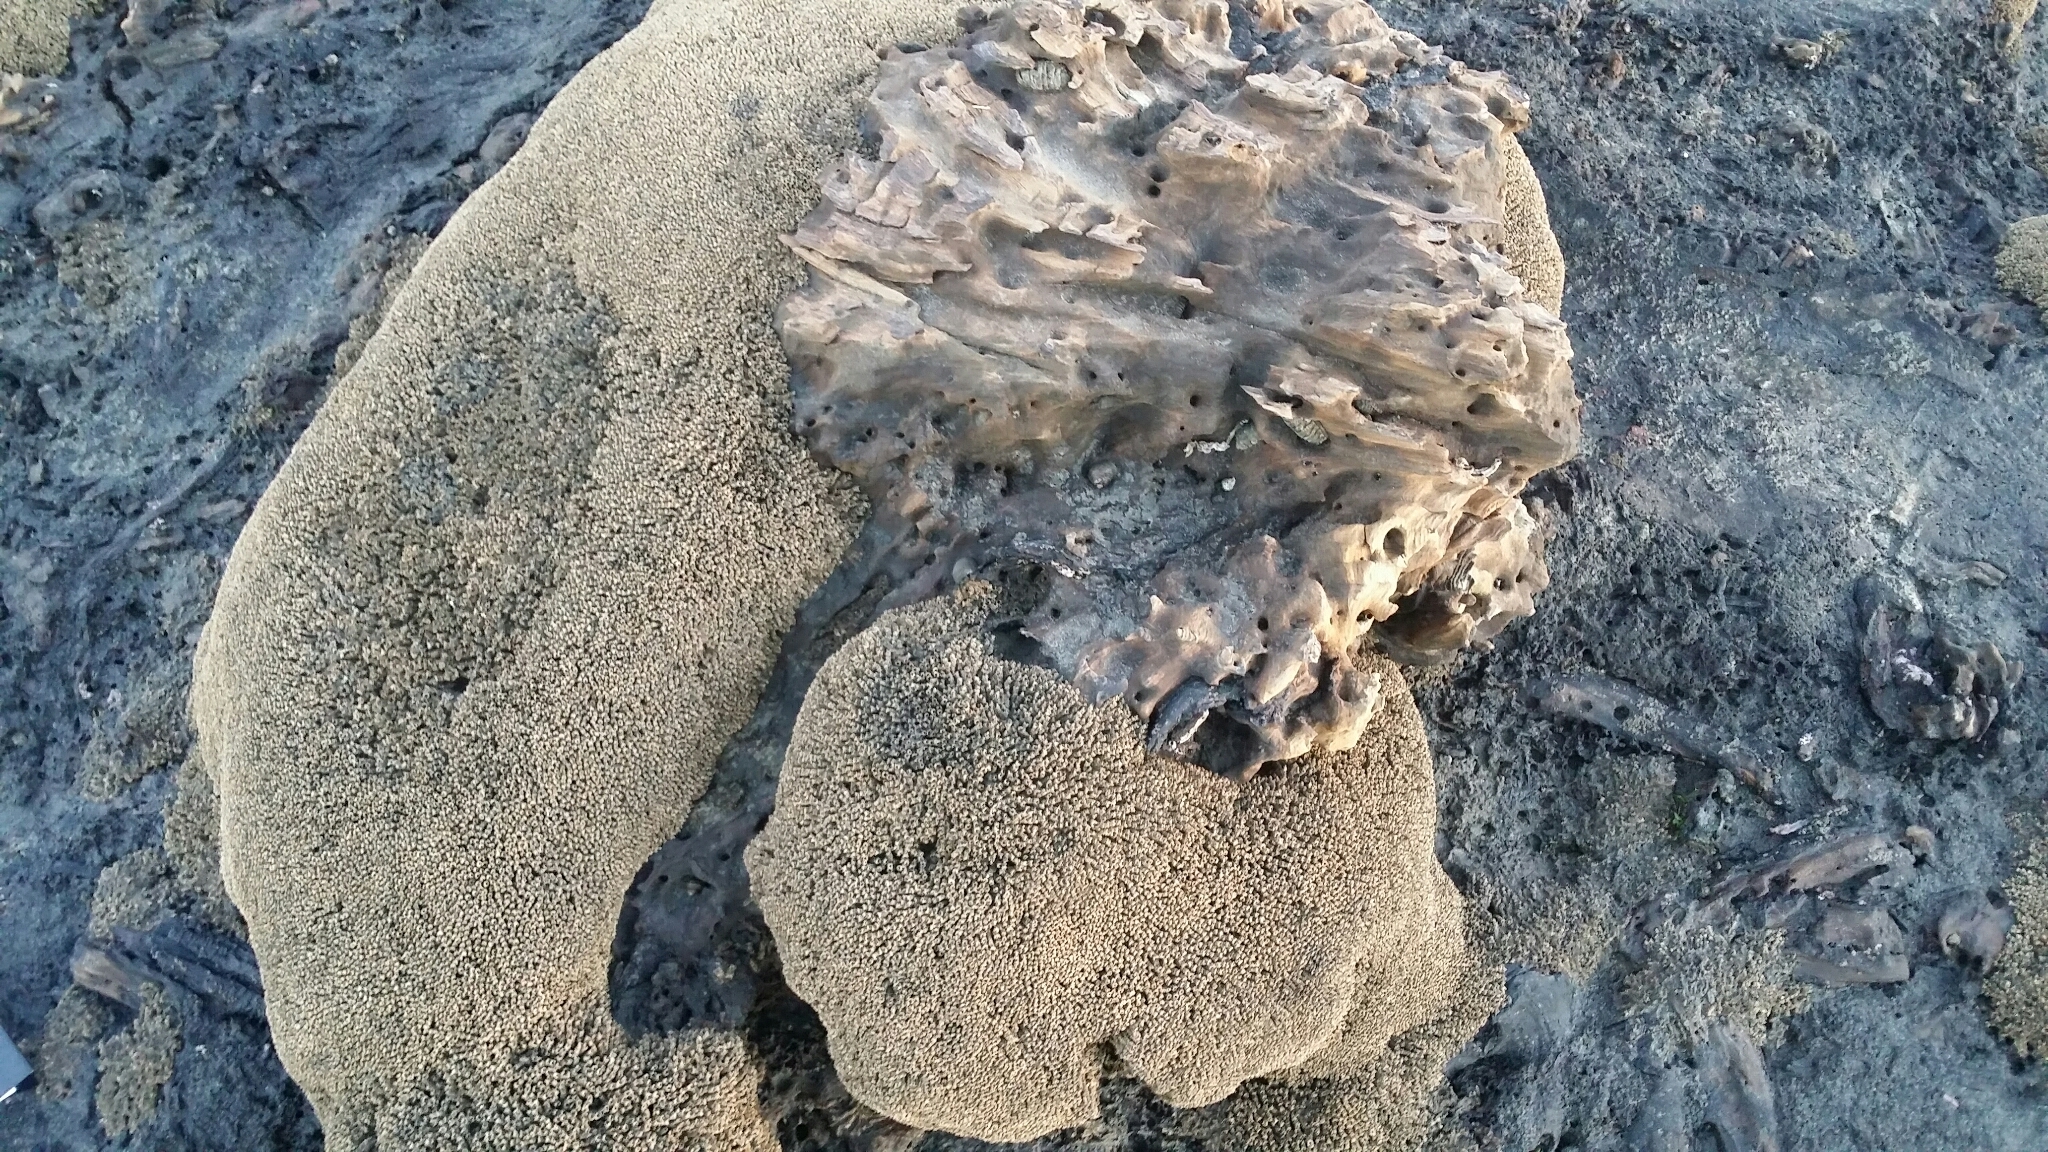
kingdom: Animalia
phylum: Annelida
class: Polychaeta
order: Sabellida
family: Sabellariidae
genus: Neosabellaria
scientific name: Neosabellaria kaiparaensis
